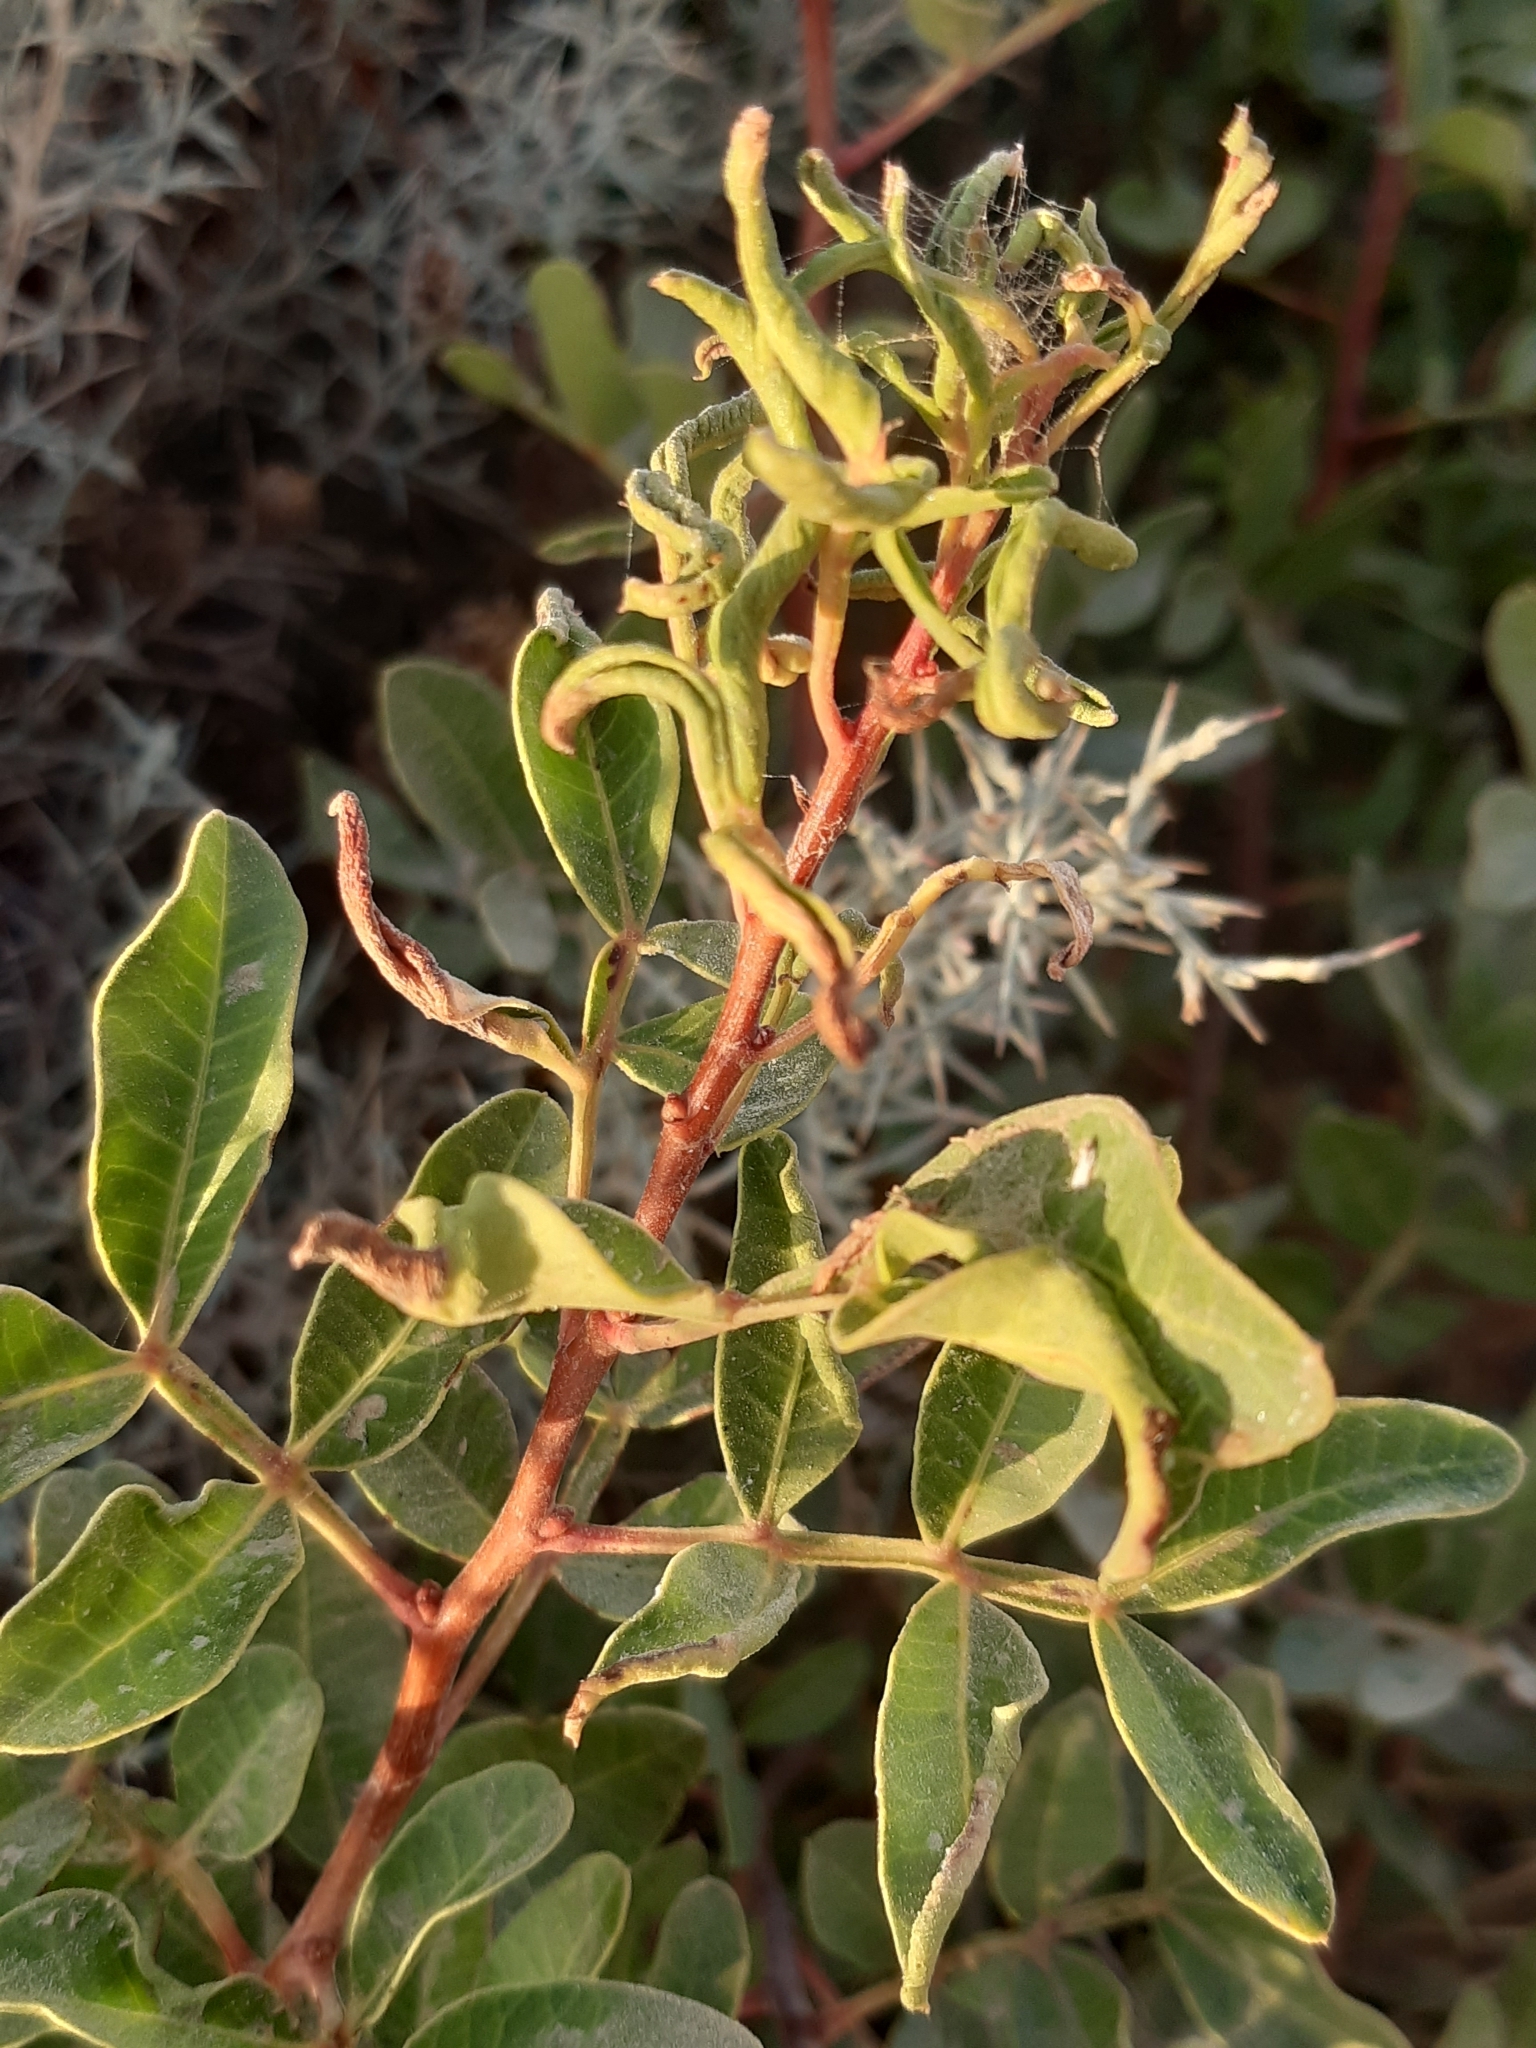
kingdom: Animalia
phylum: Arthropoda
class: Arachnida
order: Trombidiformes
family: Eriophyidae
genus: Aceria
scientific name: Aceria stefanii
